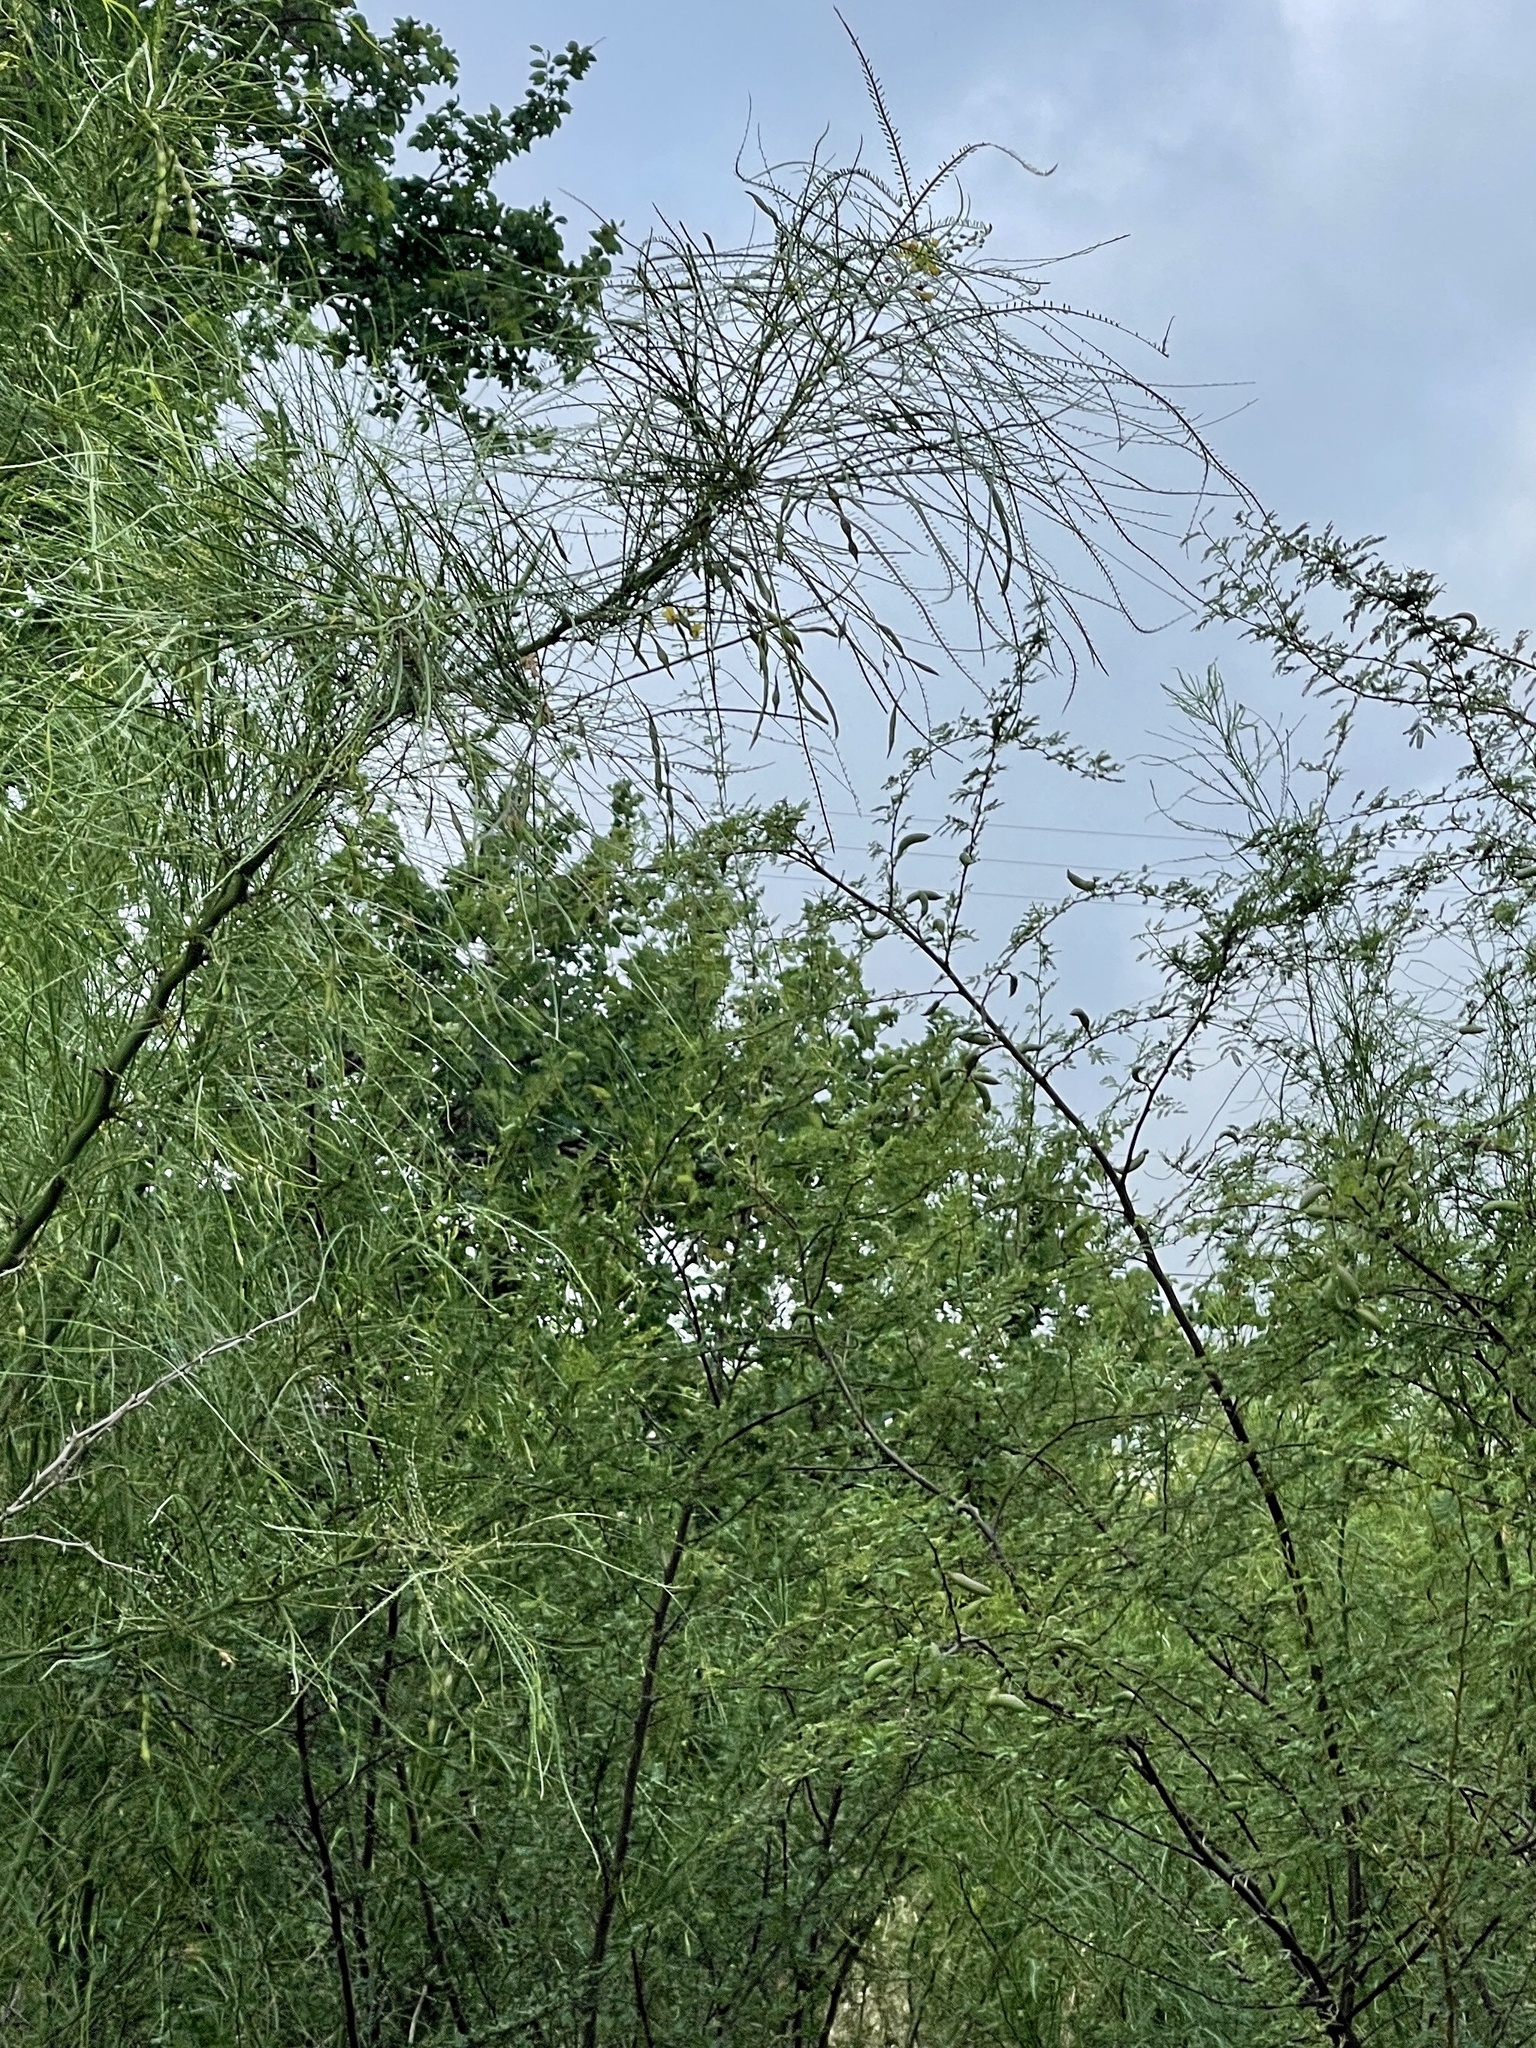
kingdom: Plantae
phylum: Tracheophyta
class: Magnoliopsida
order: Fabales
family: Fabaceae
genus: Parkinsonia
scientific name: Parkinsonia aculeata
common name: Jerusalem thorn
